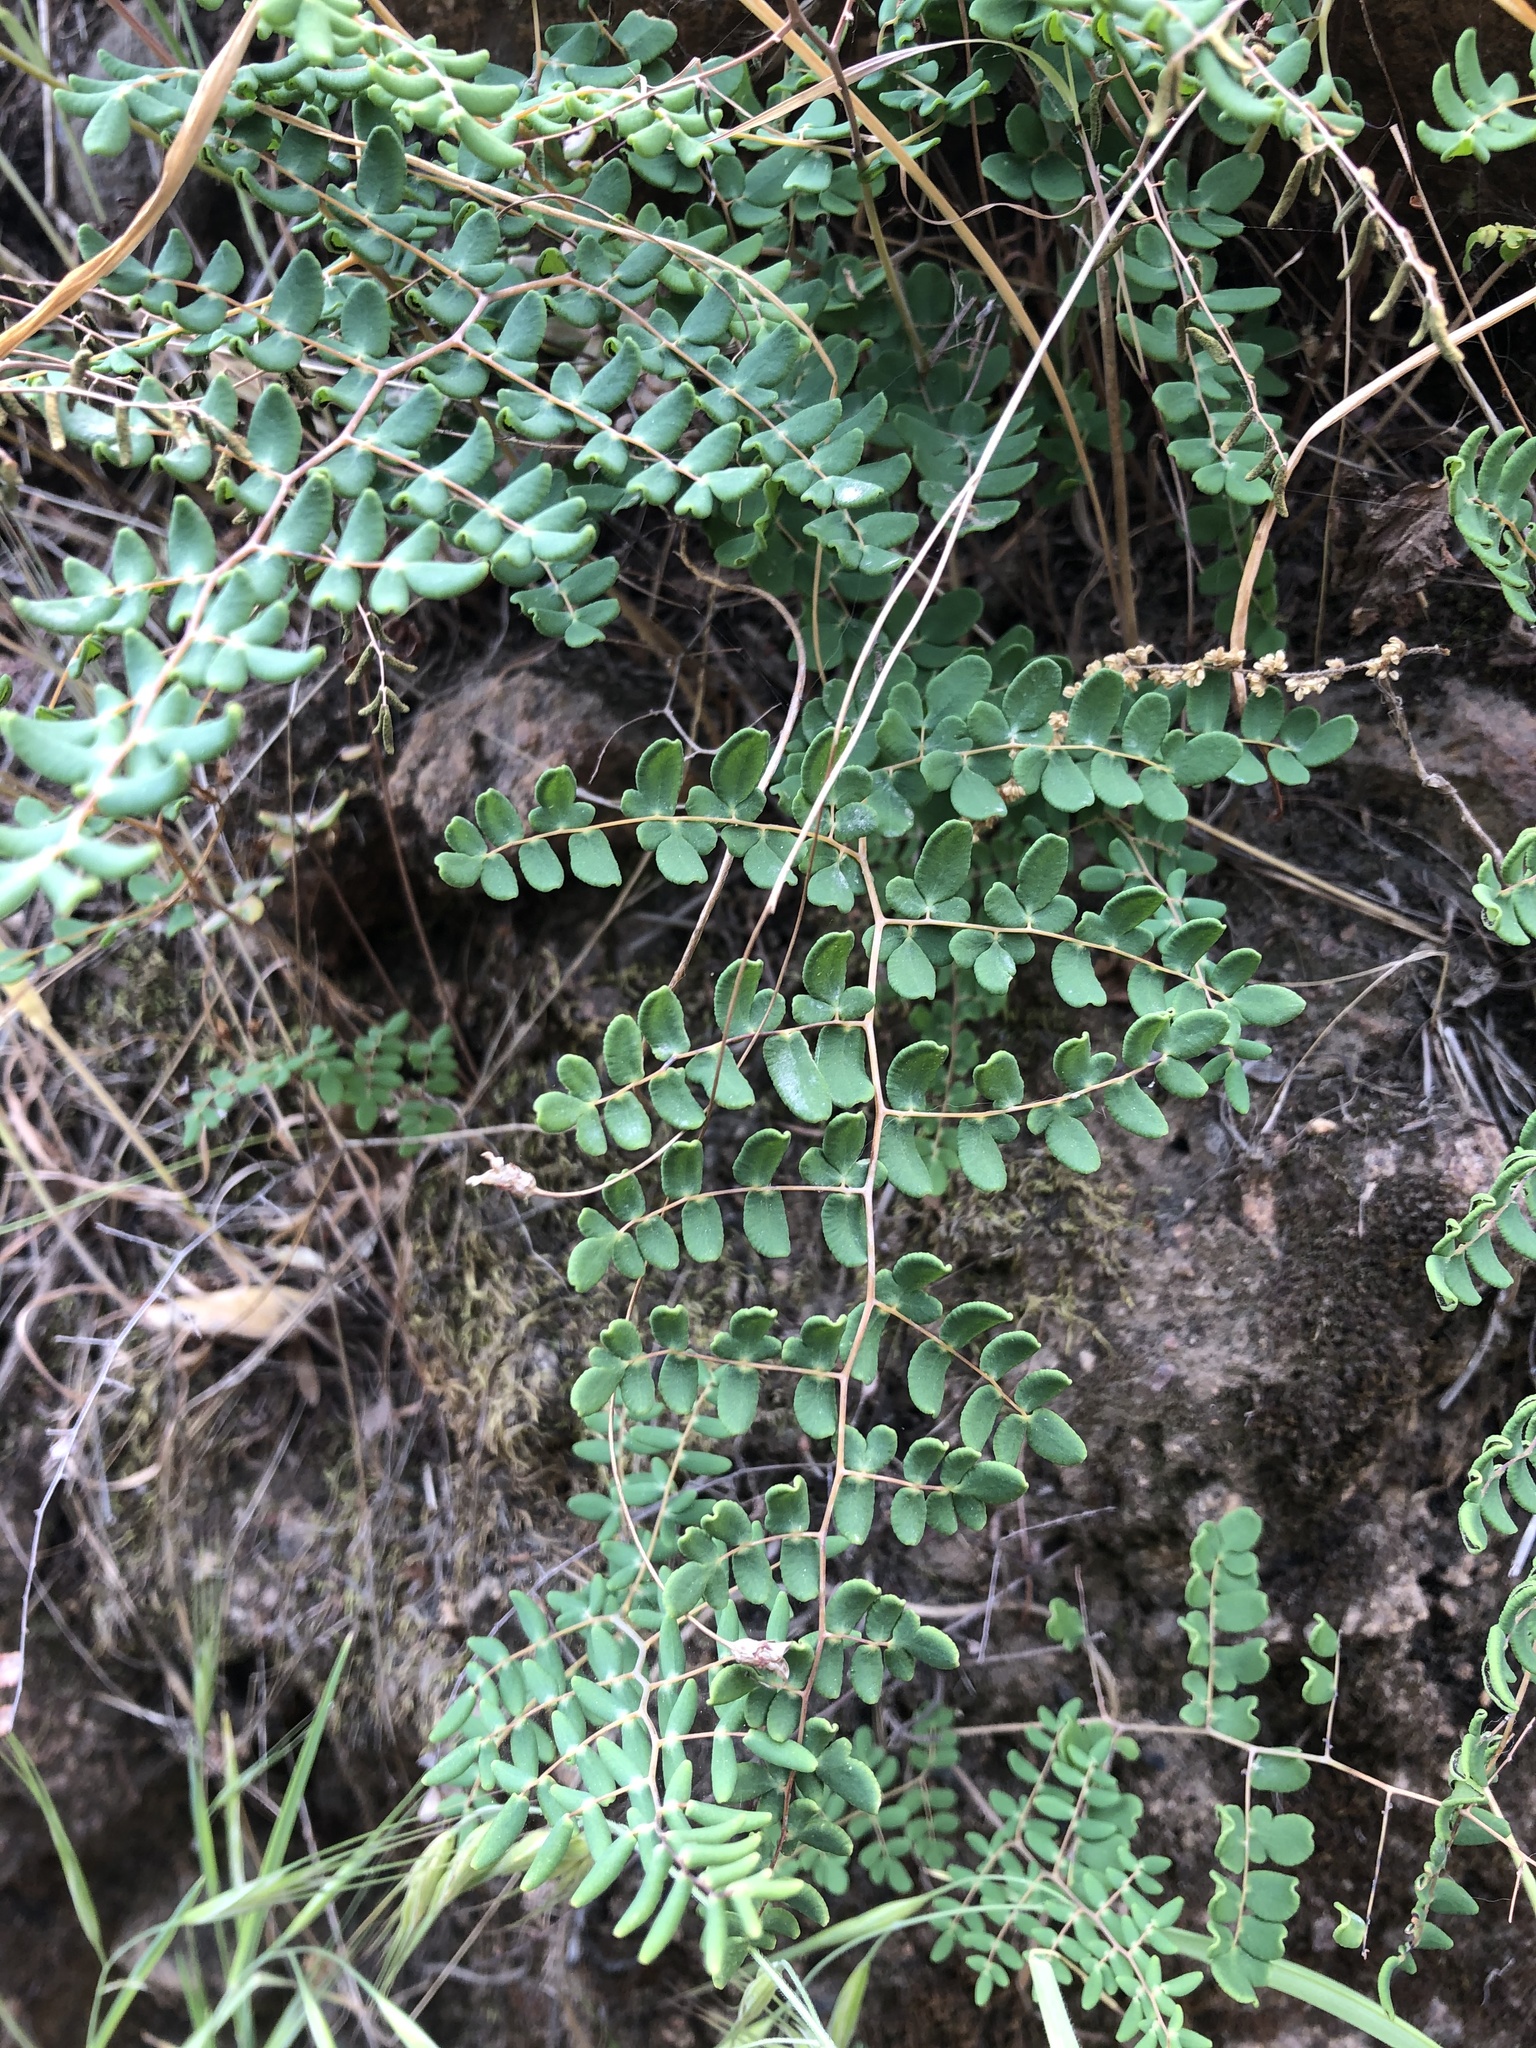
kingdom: Plantae
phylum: Tracheophyta
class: Polypodiopsida
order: Polypodiales
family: Pteridaceae
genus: Pellaea
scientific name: Pellaea andromedifolia
